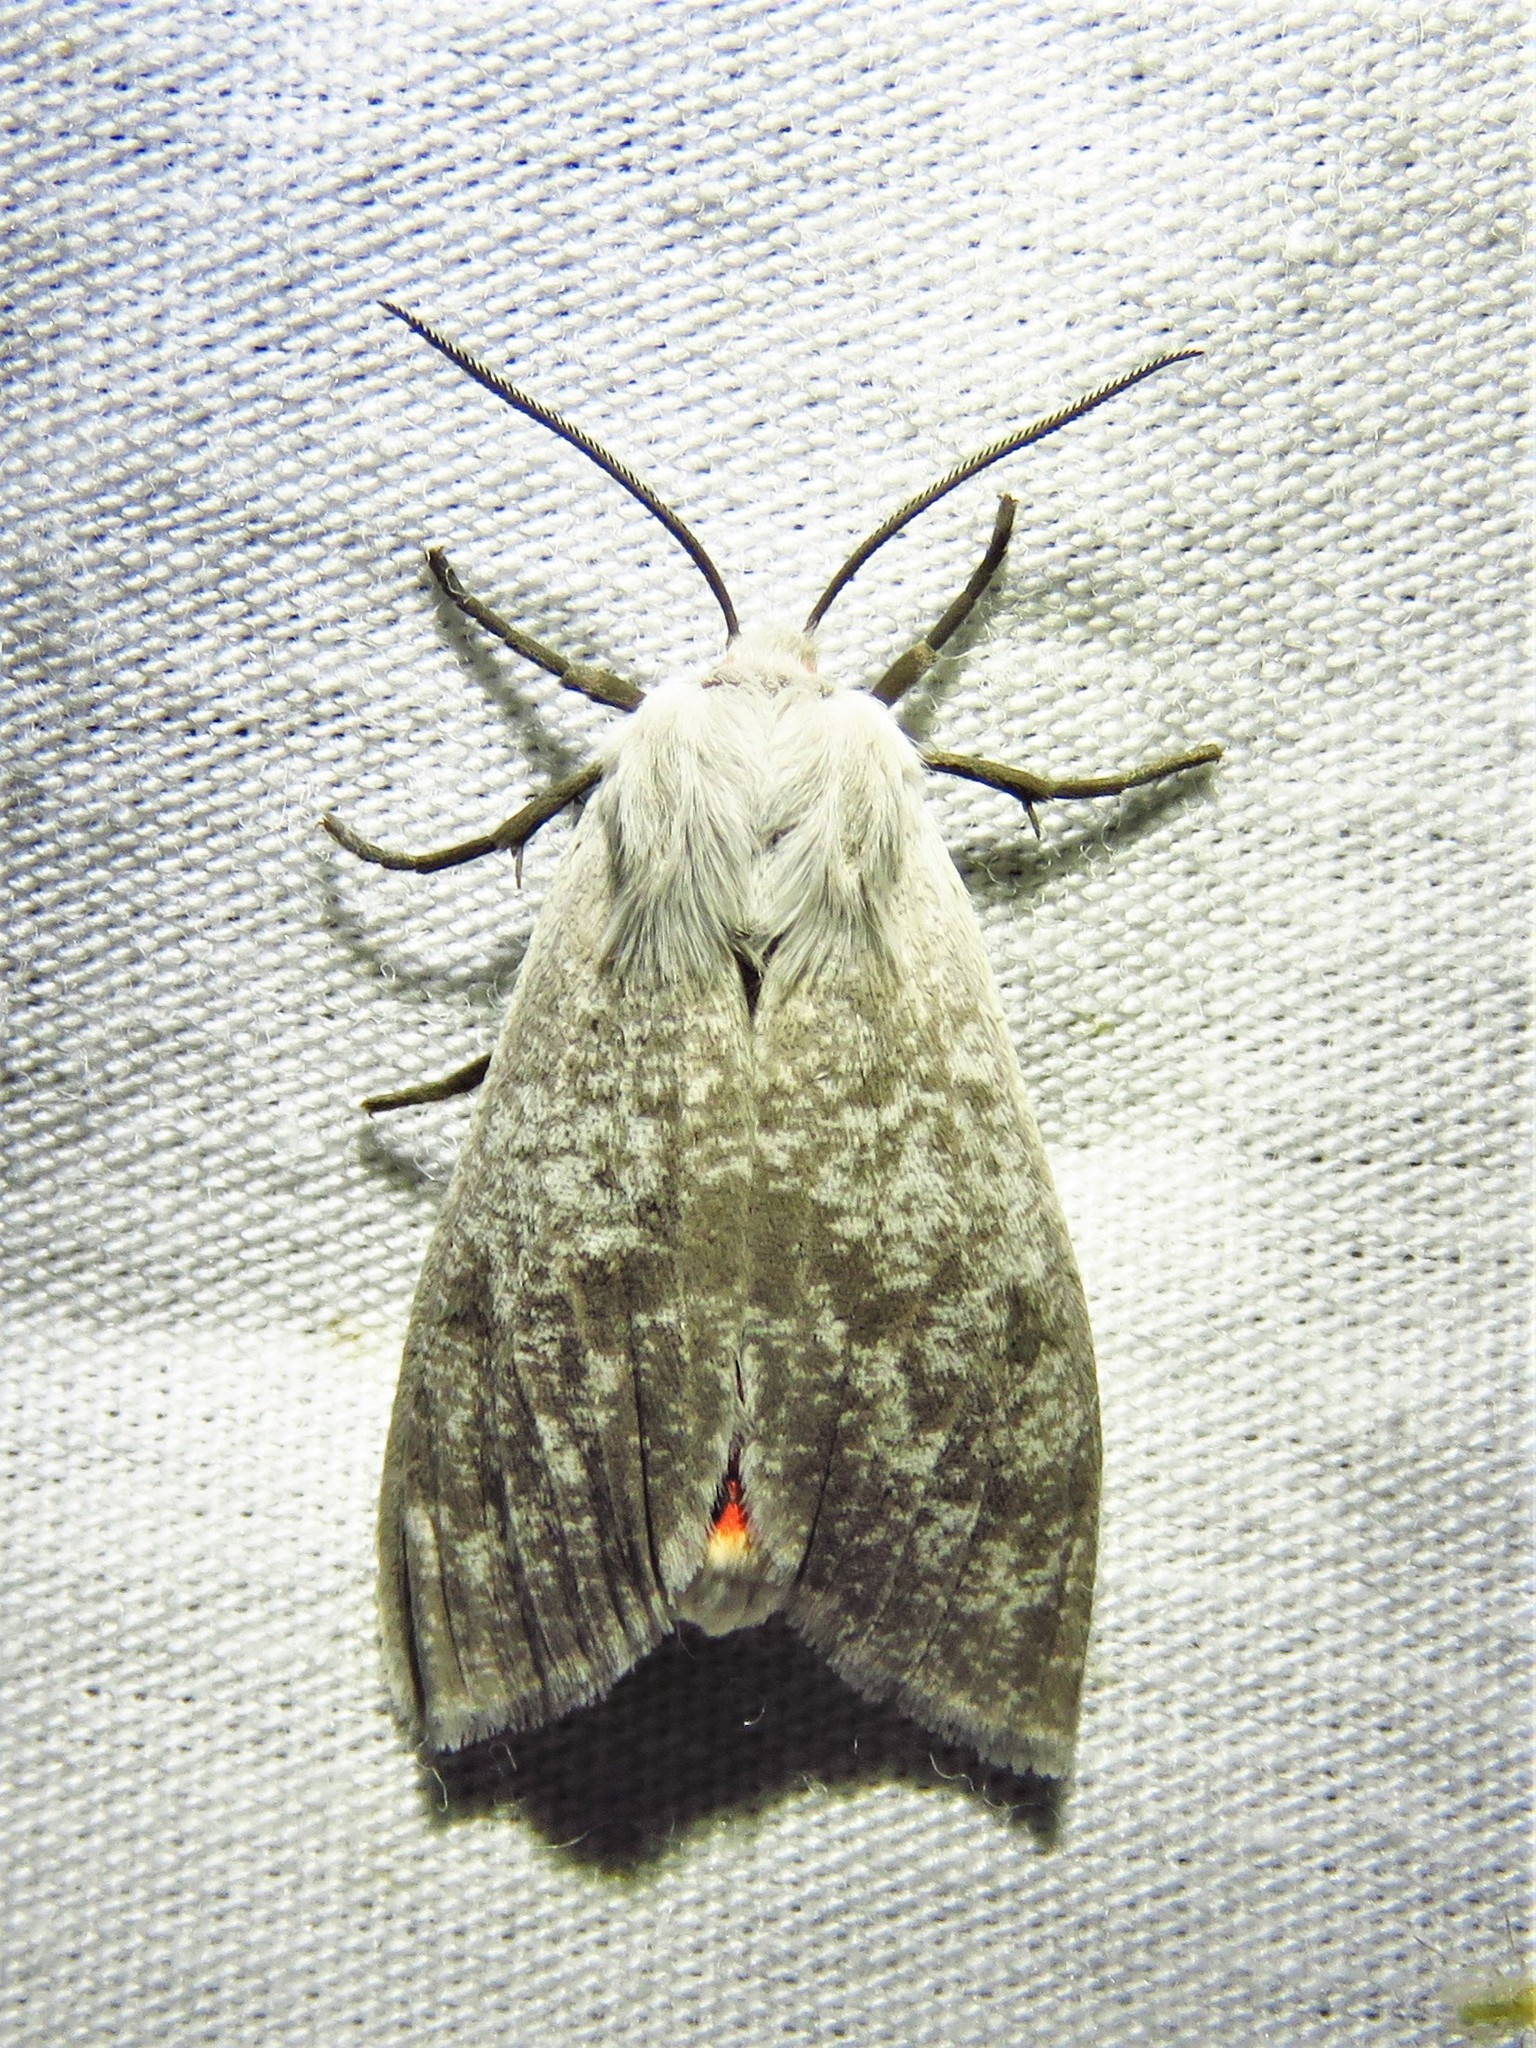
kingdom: Animalia
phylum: Arthropoda
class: Insecta
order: Lepidoptera
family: Erebidae
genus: Euchaetes
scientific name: Euchaetes bolteri
